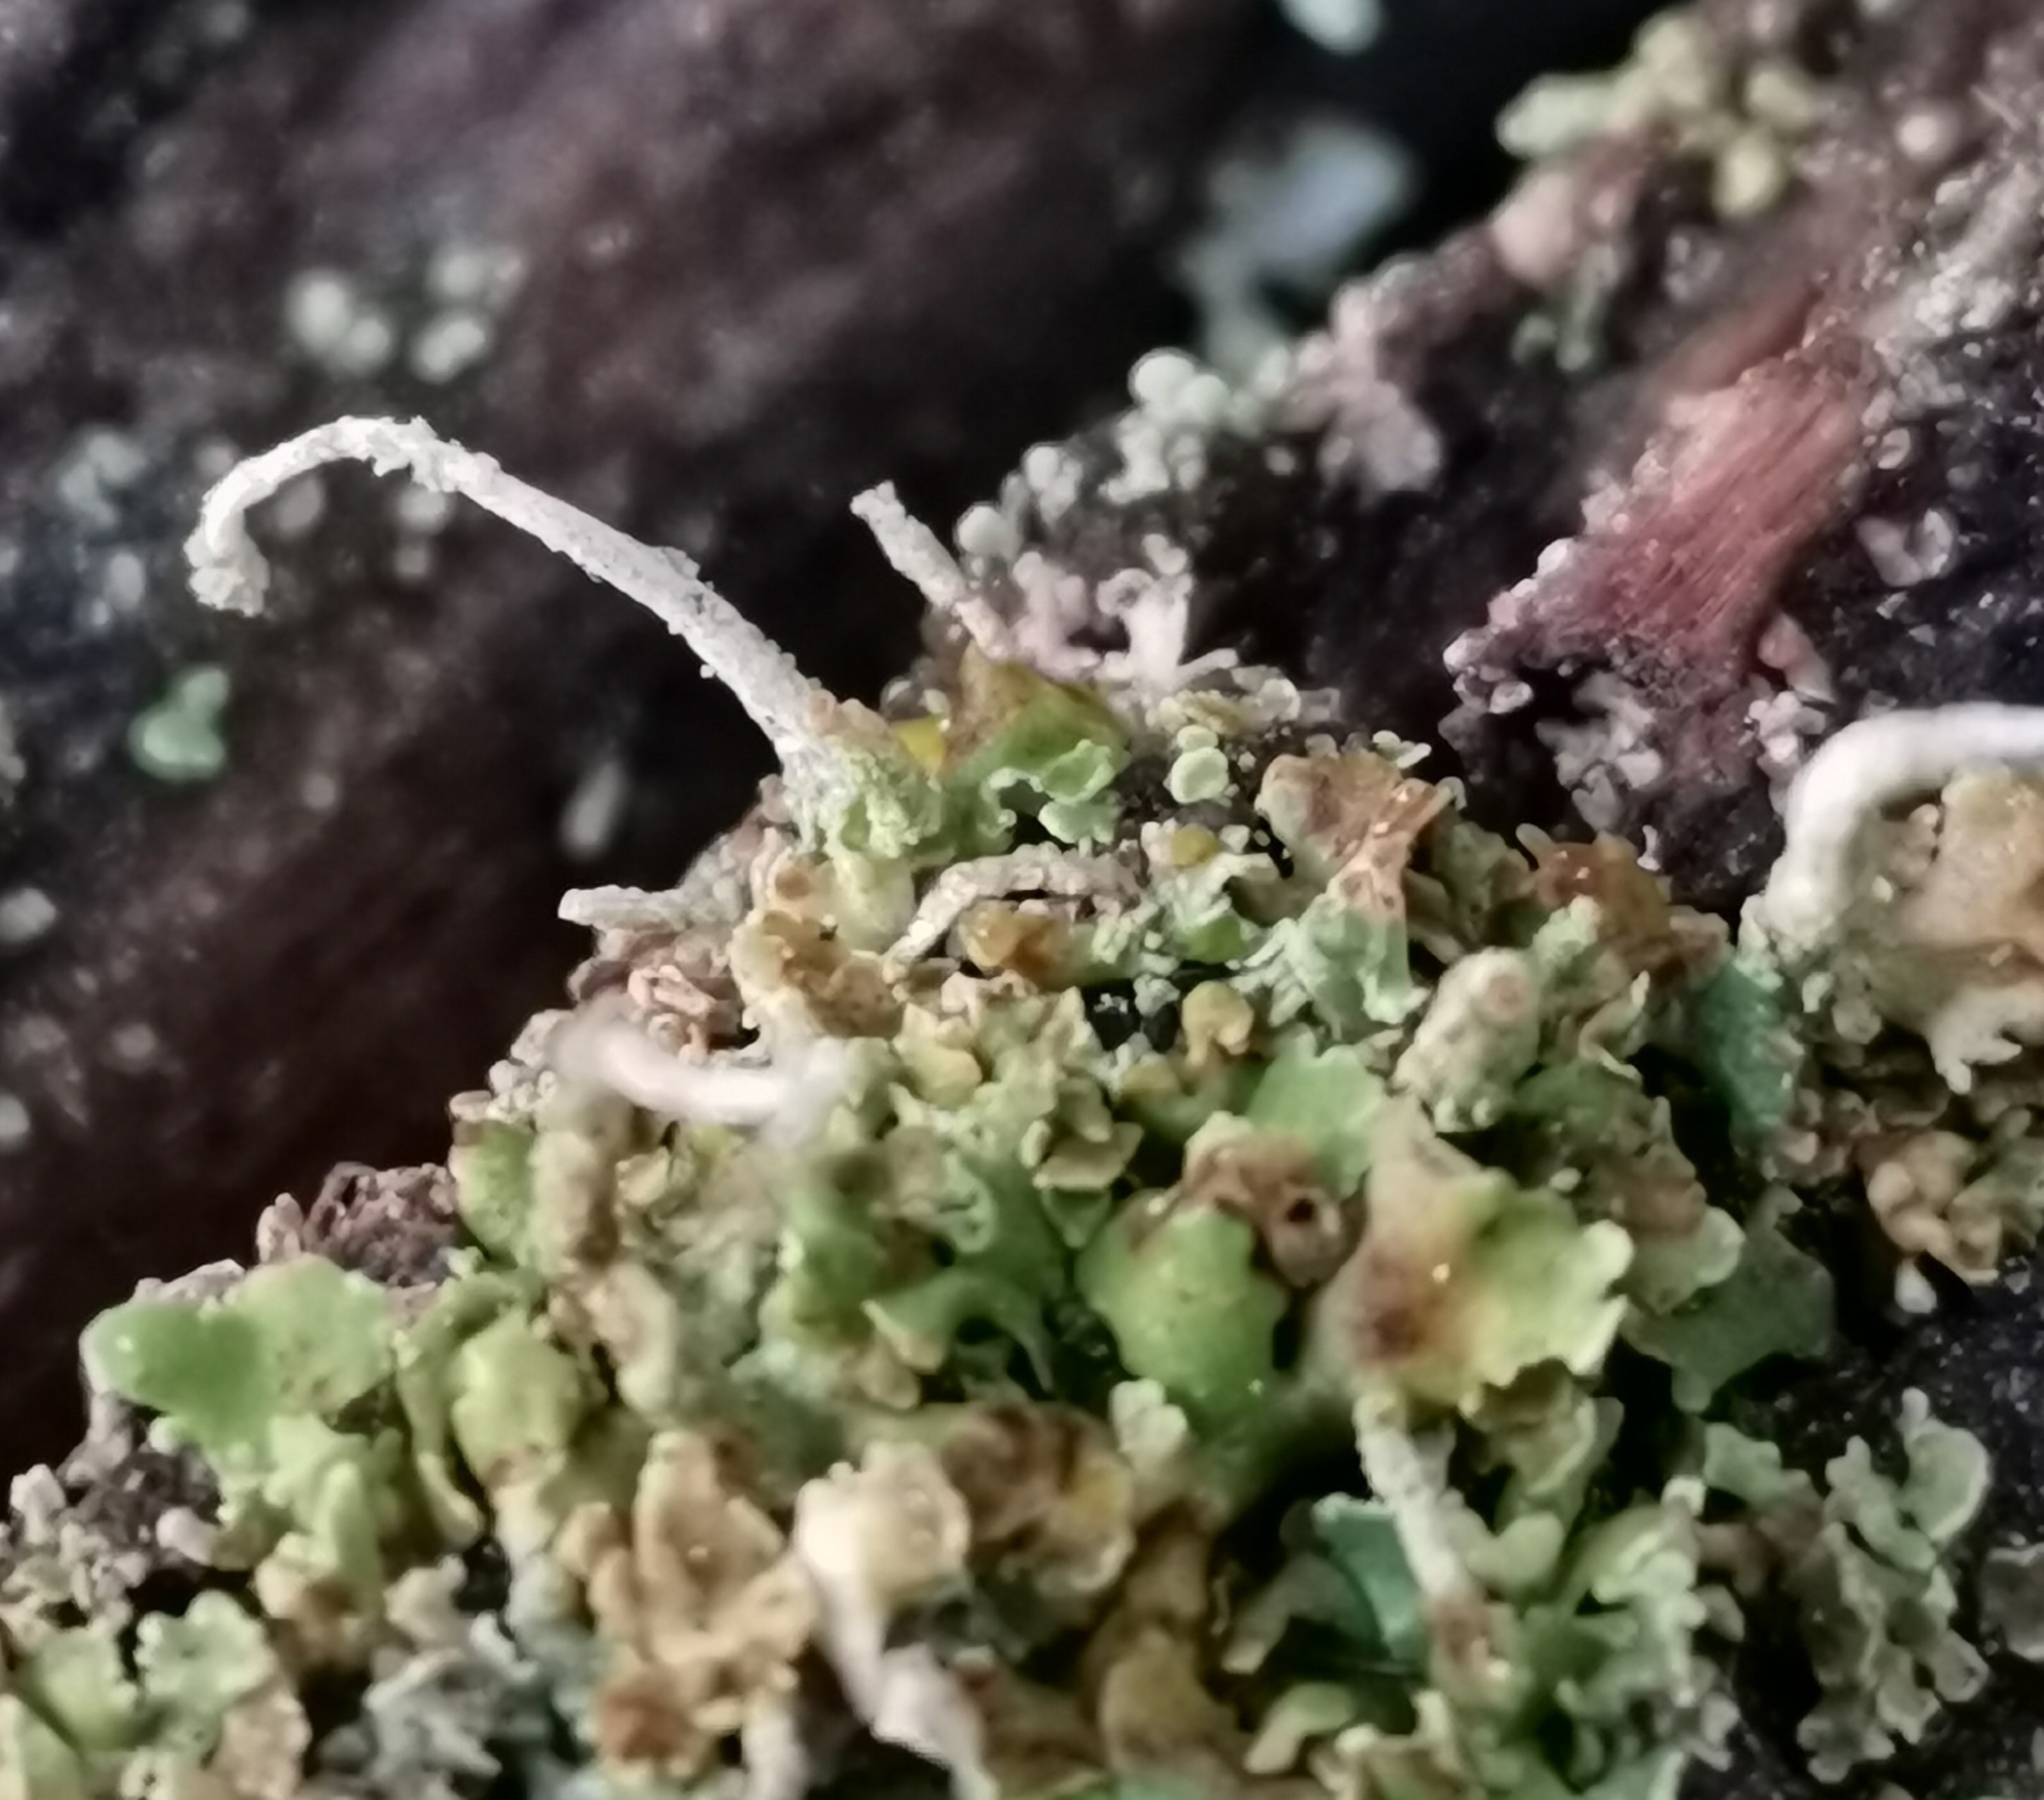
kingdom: Fungi
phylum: Ascomycota
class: Lecanoromycetes
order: Lecanorales
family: Cladoniaceae
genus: Cladonia
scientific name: Cladonia coniocraea
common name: Common powderhorn
